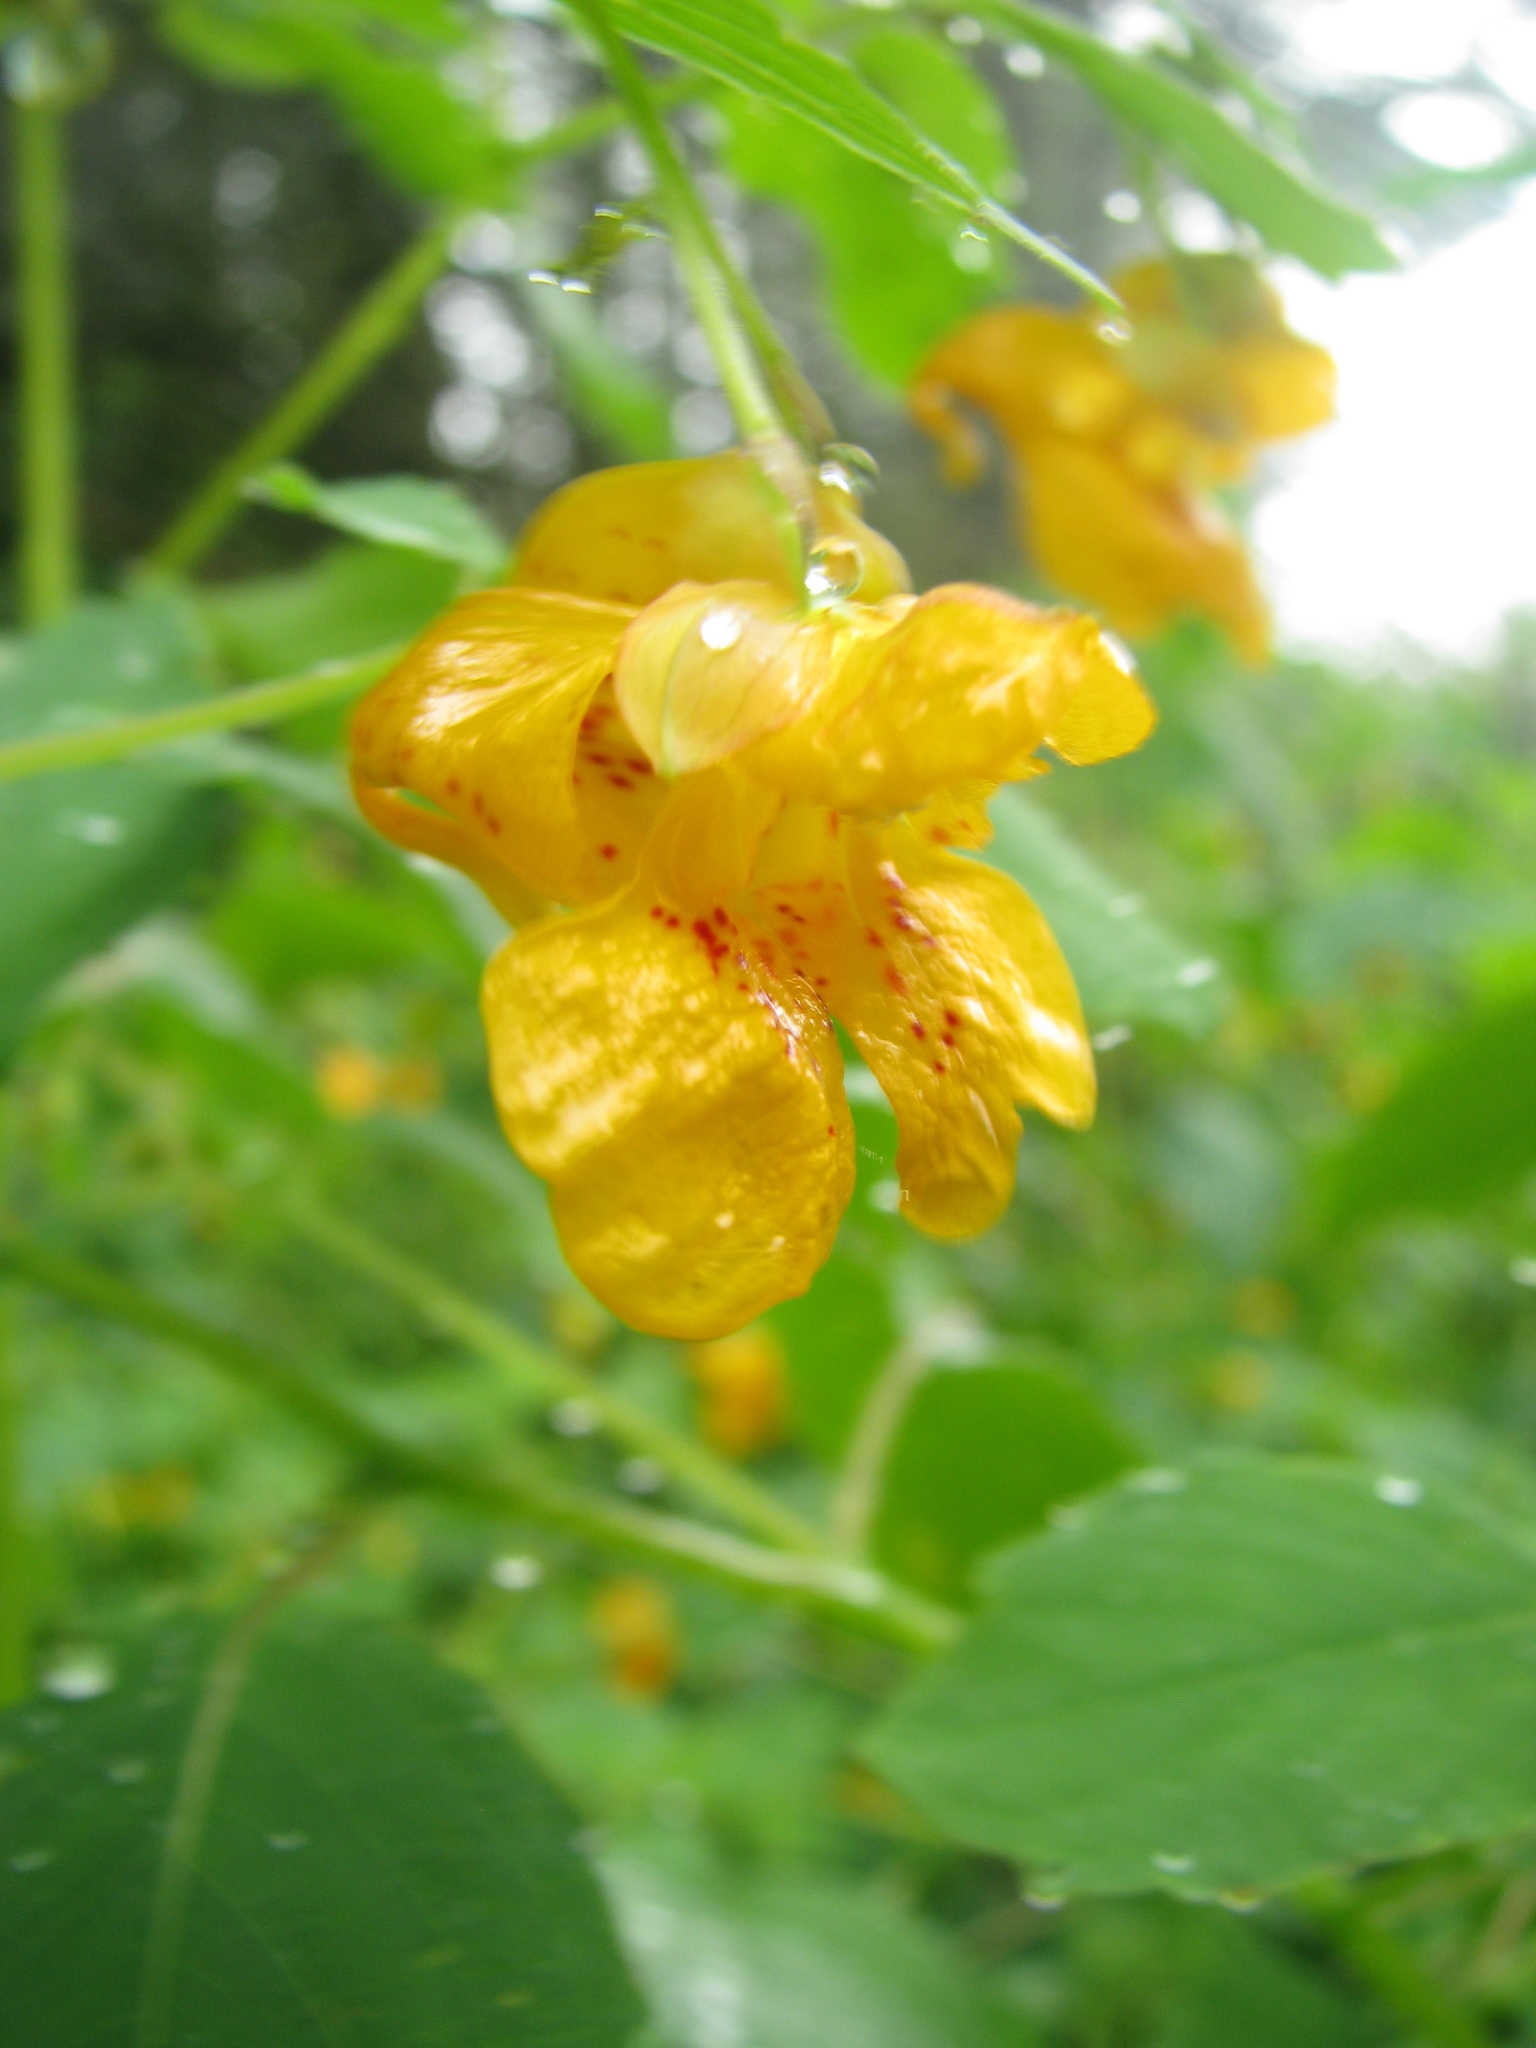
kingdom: Plantae
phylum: Tracheophyta
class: Magnoliopsida
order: Ericales
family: Balsaminaceae
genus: Impatiens
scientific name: Impatiens capensis
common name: Orange balsam
